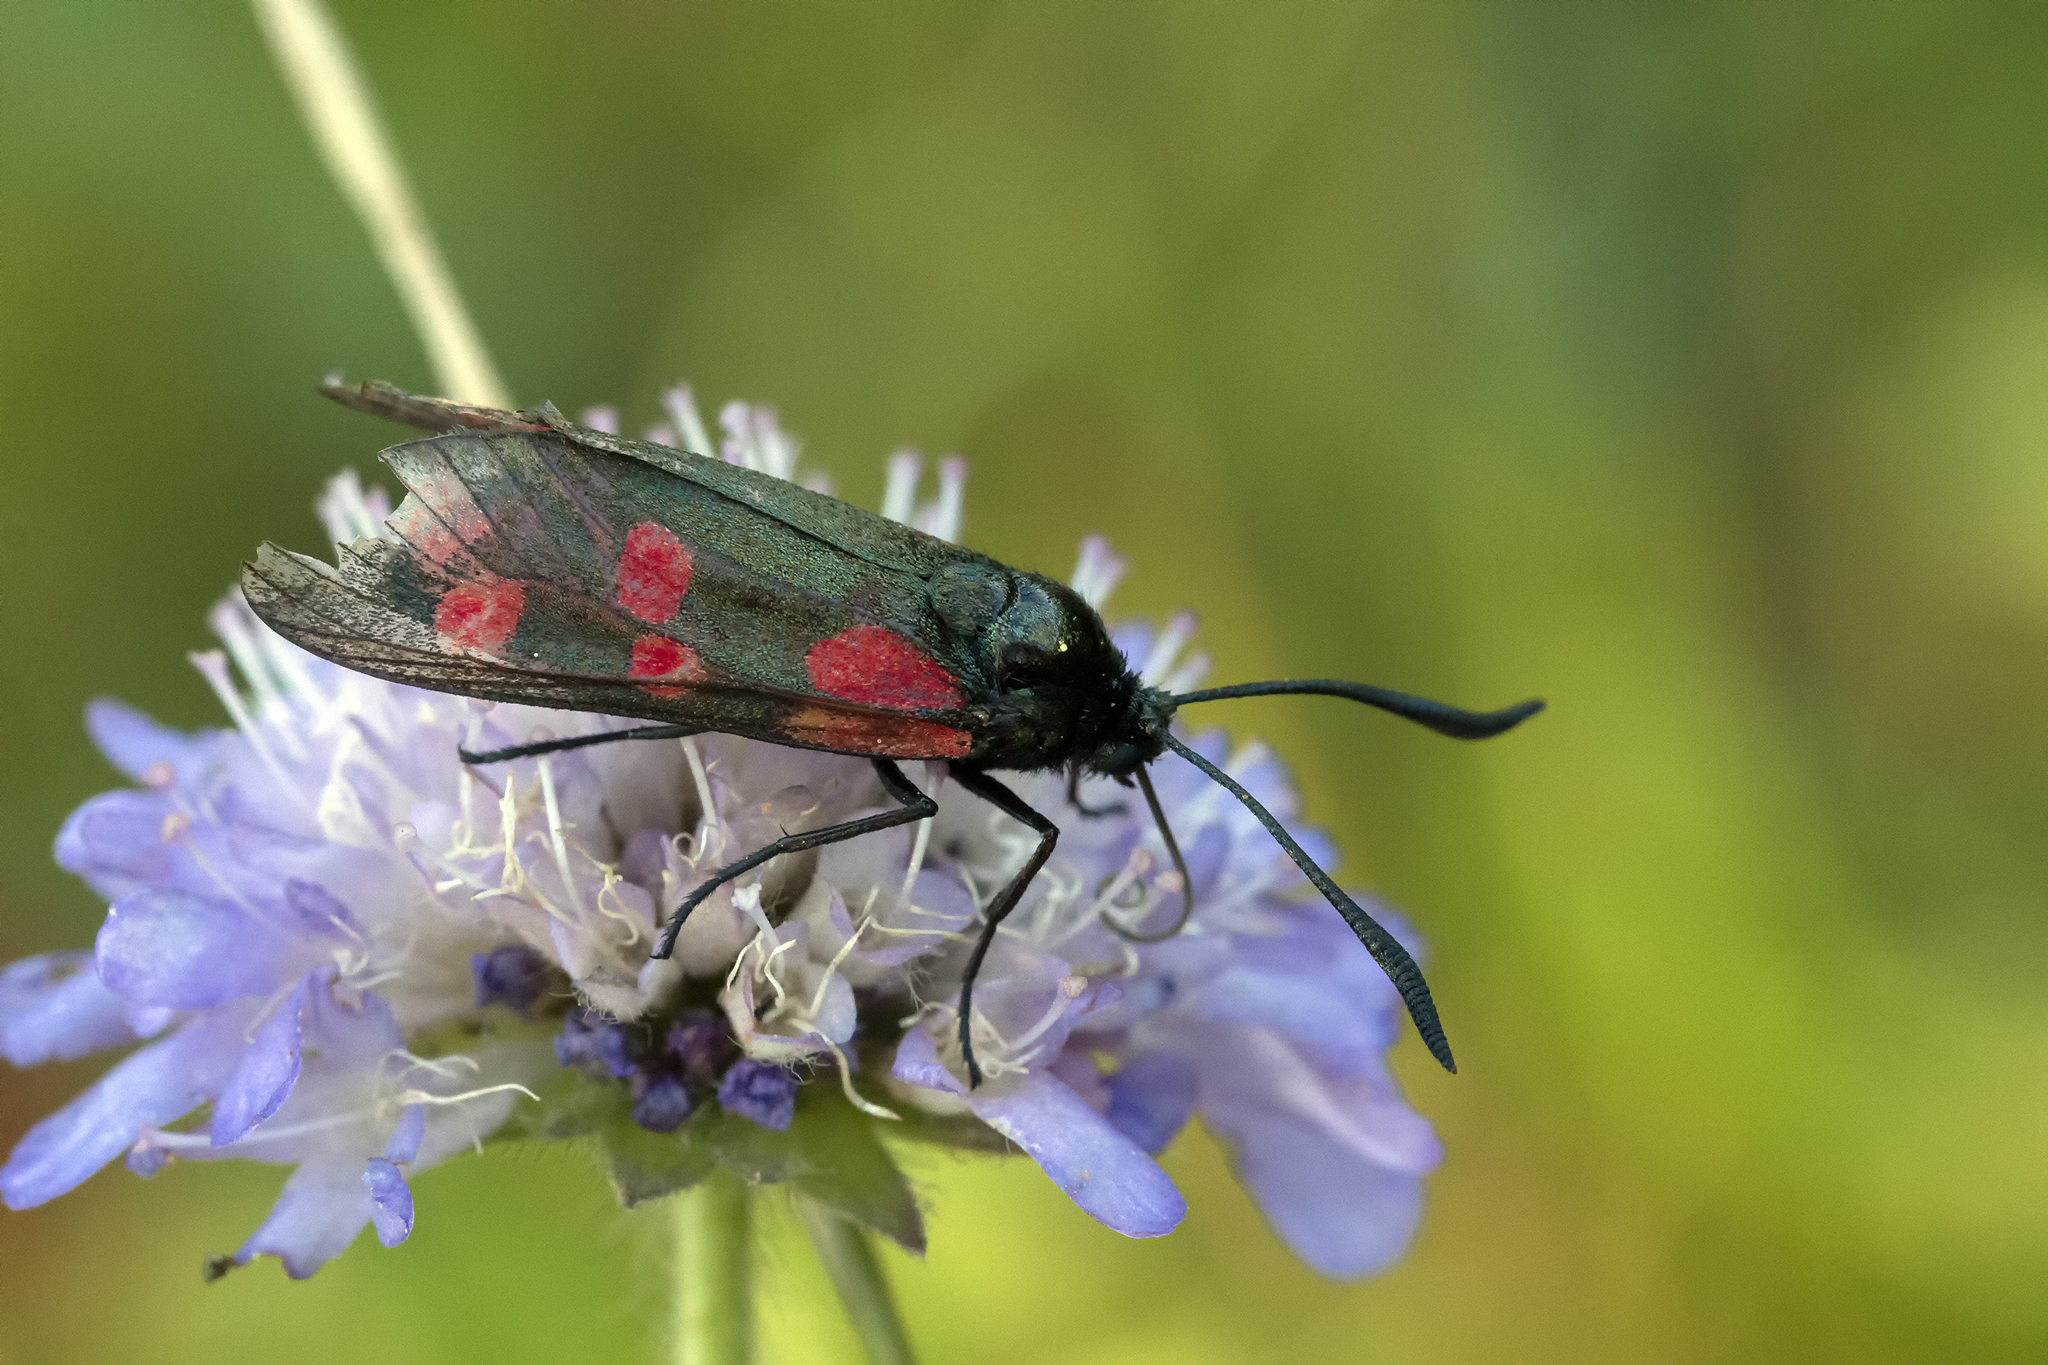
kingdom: Animalia
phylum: Arthropoda
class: Insecta
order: Lepidoptera
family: Zygaenidae
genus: Zygaena
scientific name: Zygaena filipendulae
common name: Six-spot burnet
